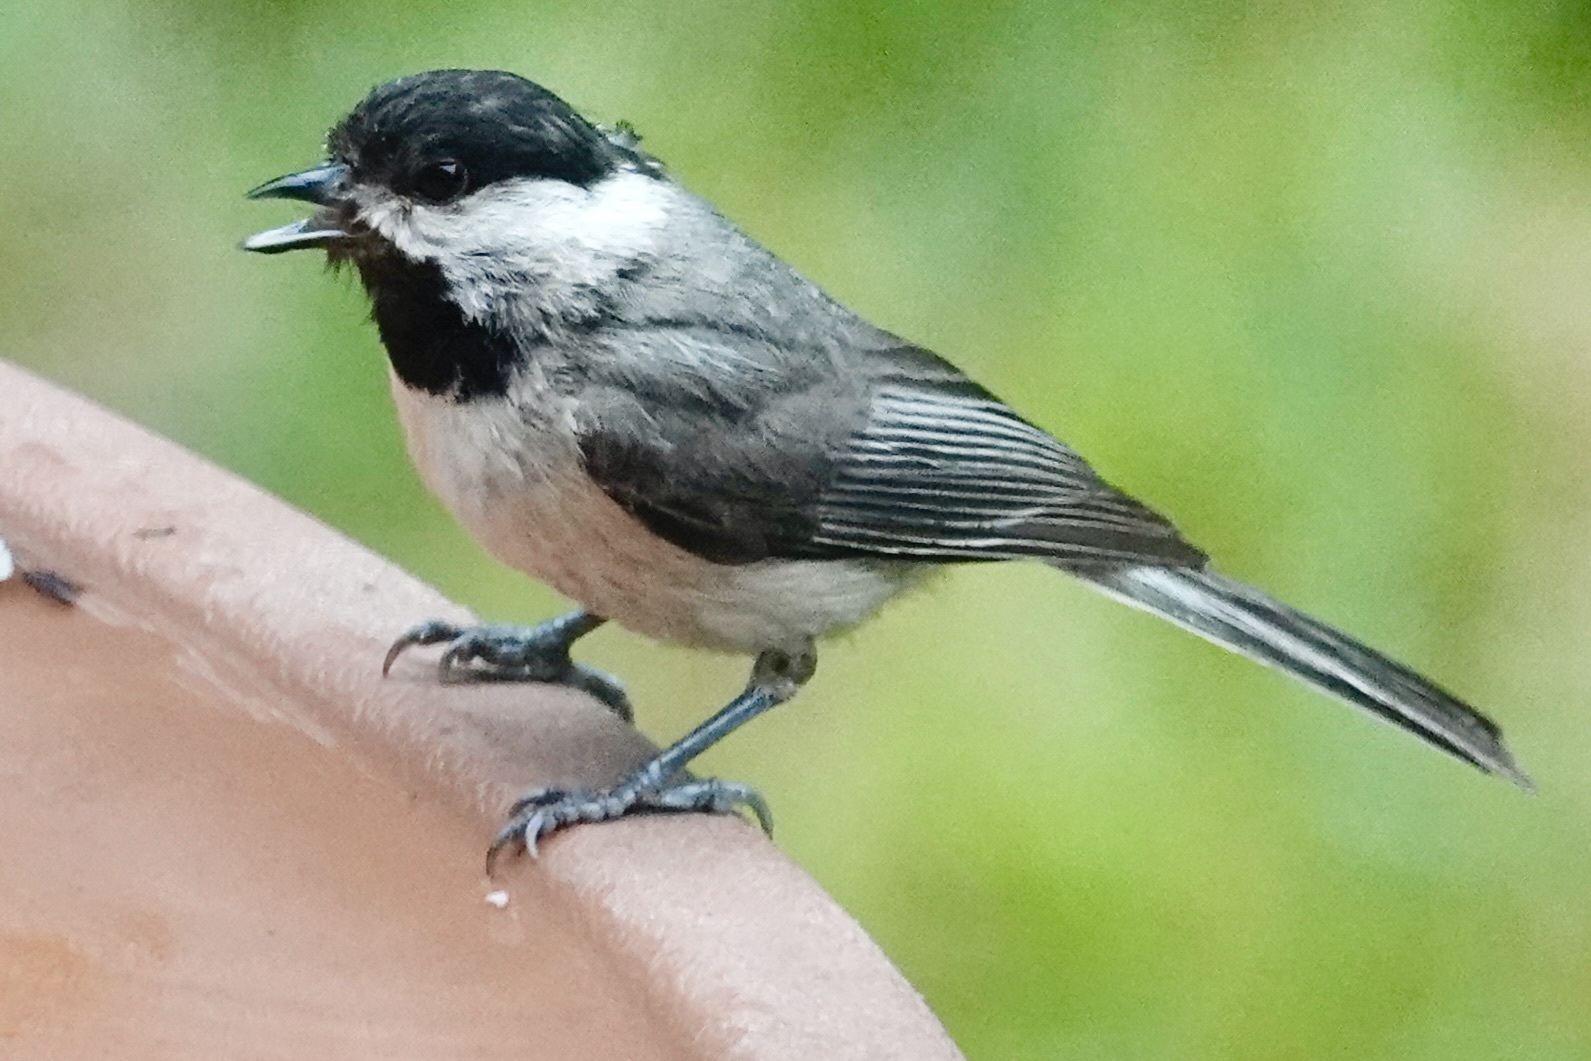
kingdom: Animalia
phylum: Chordata
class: Aves
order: Passeriformes
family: Paridae
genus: Poecile
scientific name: Poecile carolinensis
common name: Carolina chickadee
